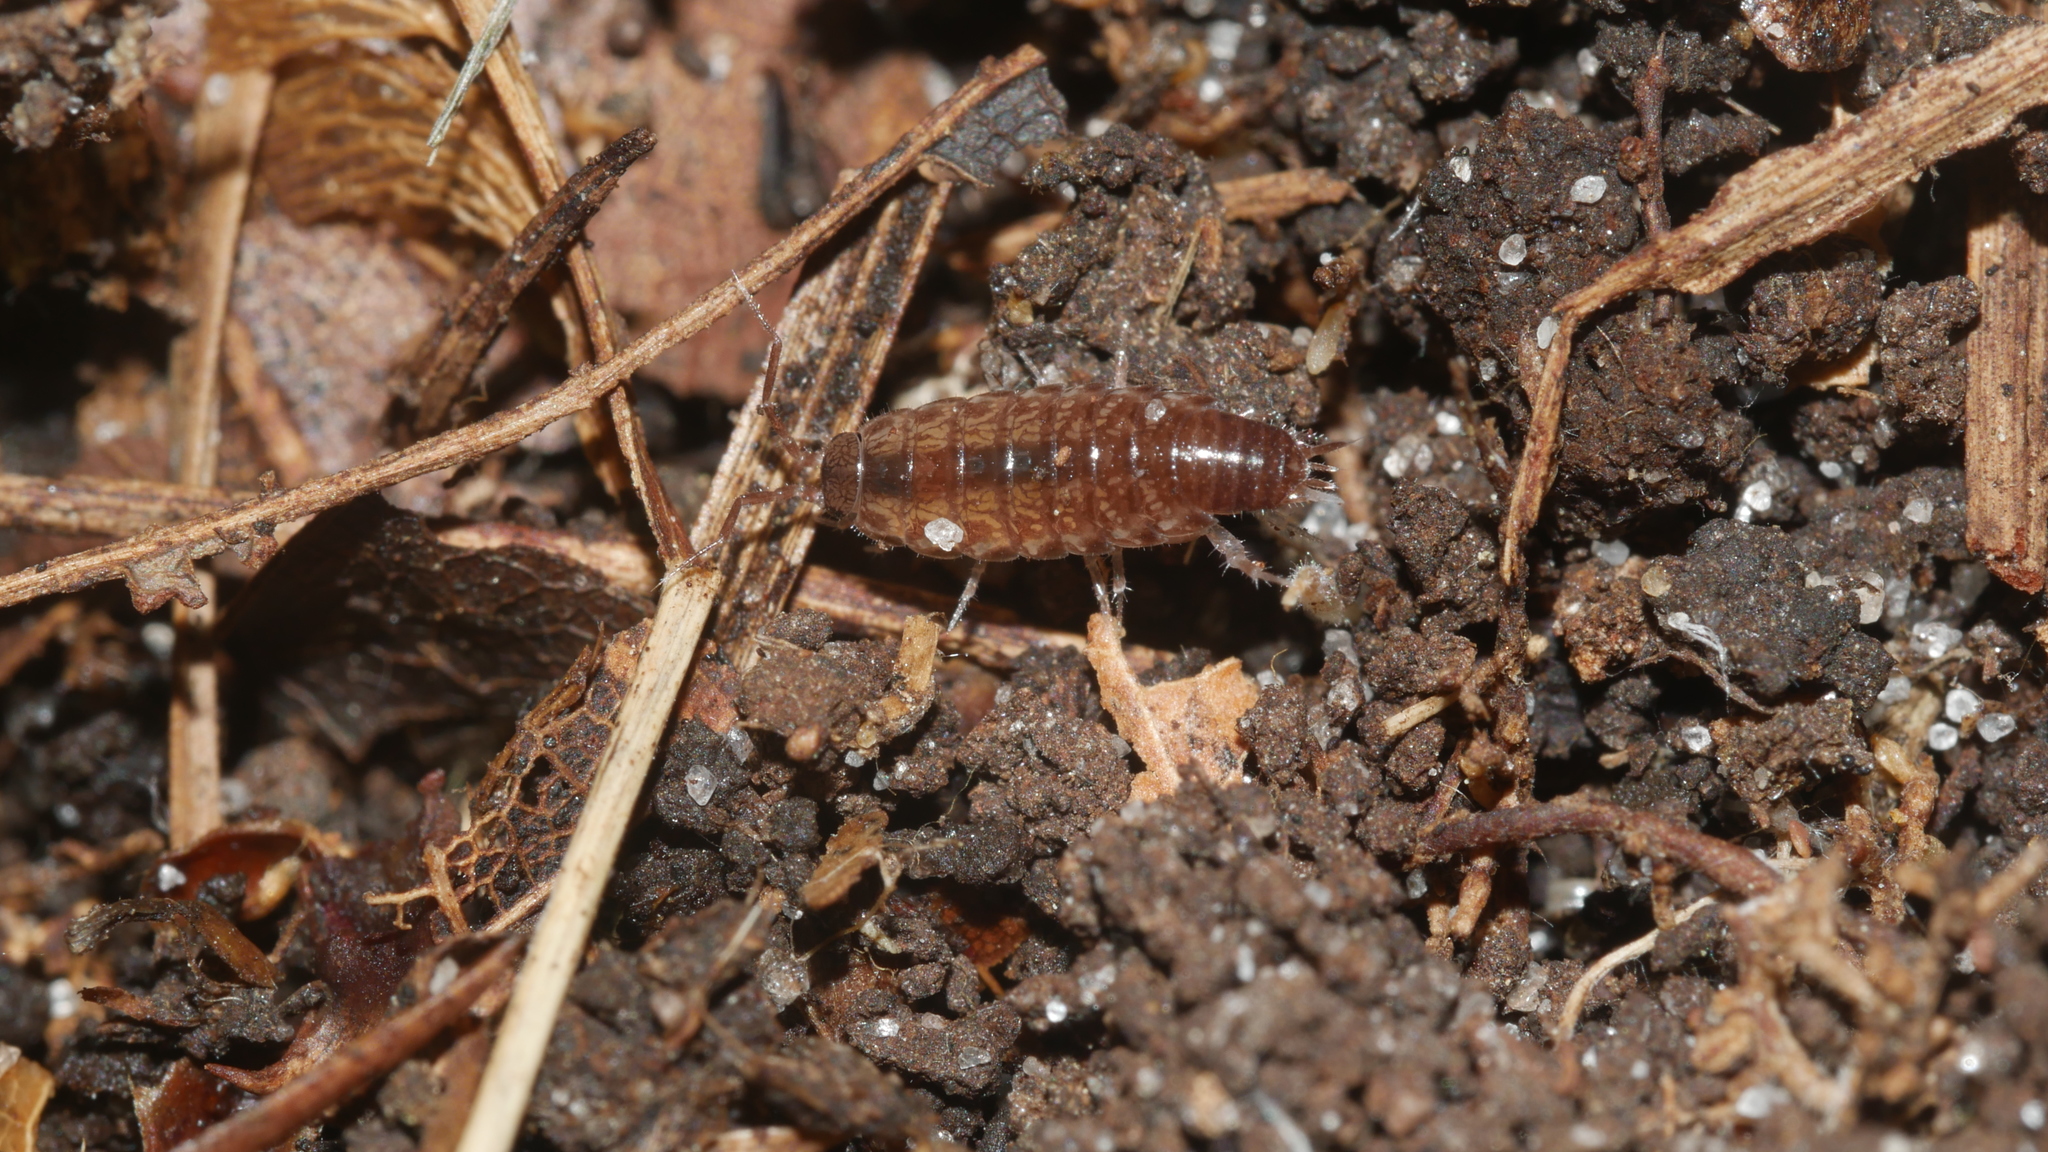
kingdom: Animalia
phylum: Arthropoda
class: Malacostraca
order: Isopoda
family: Philosciidae
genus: Chaetophiloscia
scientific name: Chaetophiloscia sicula
